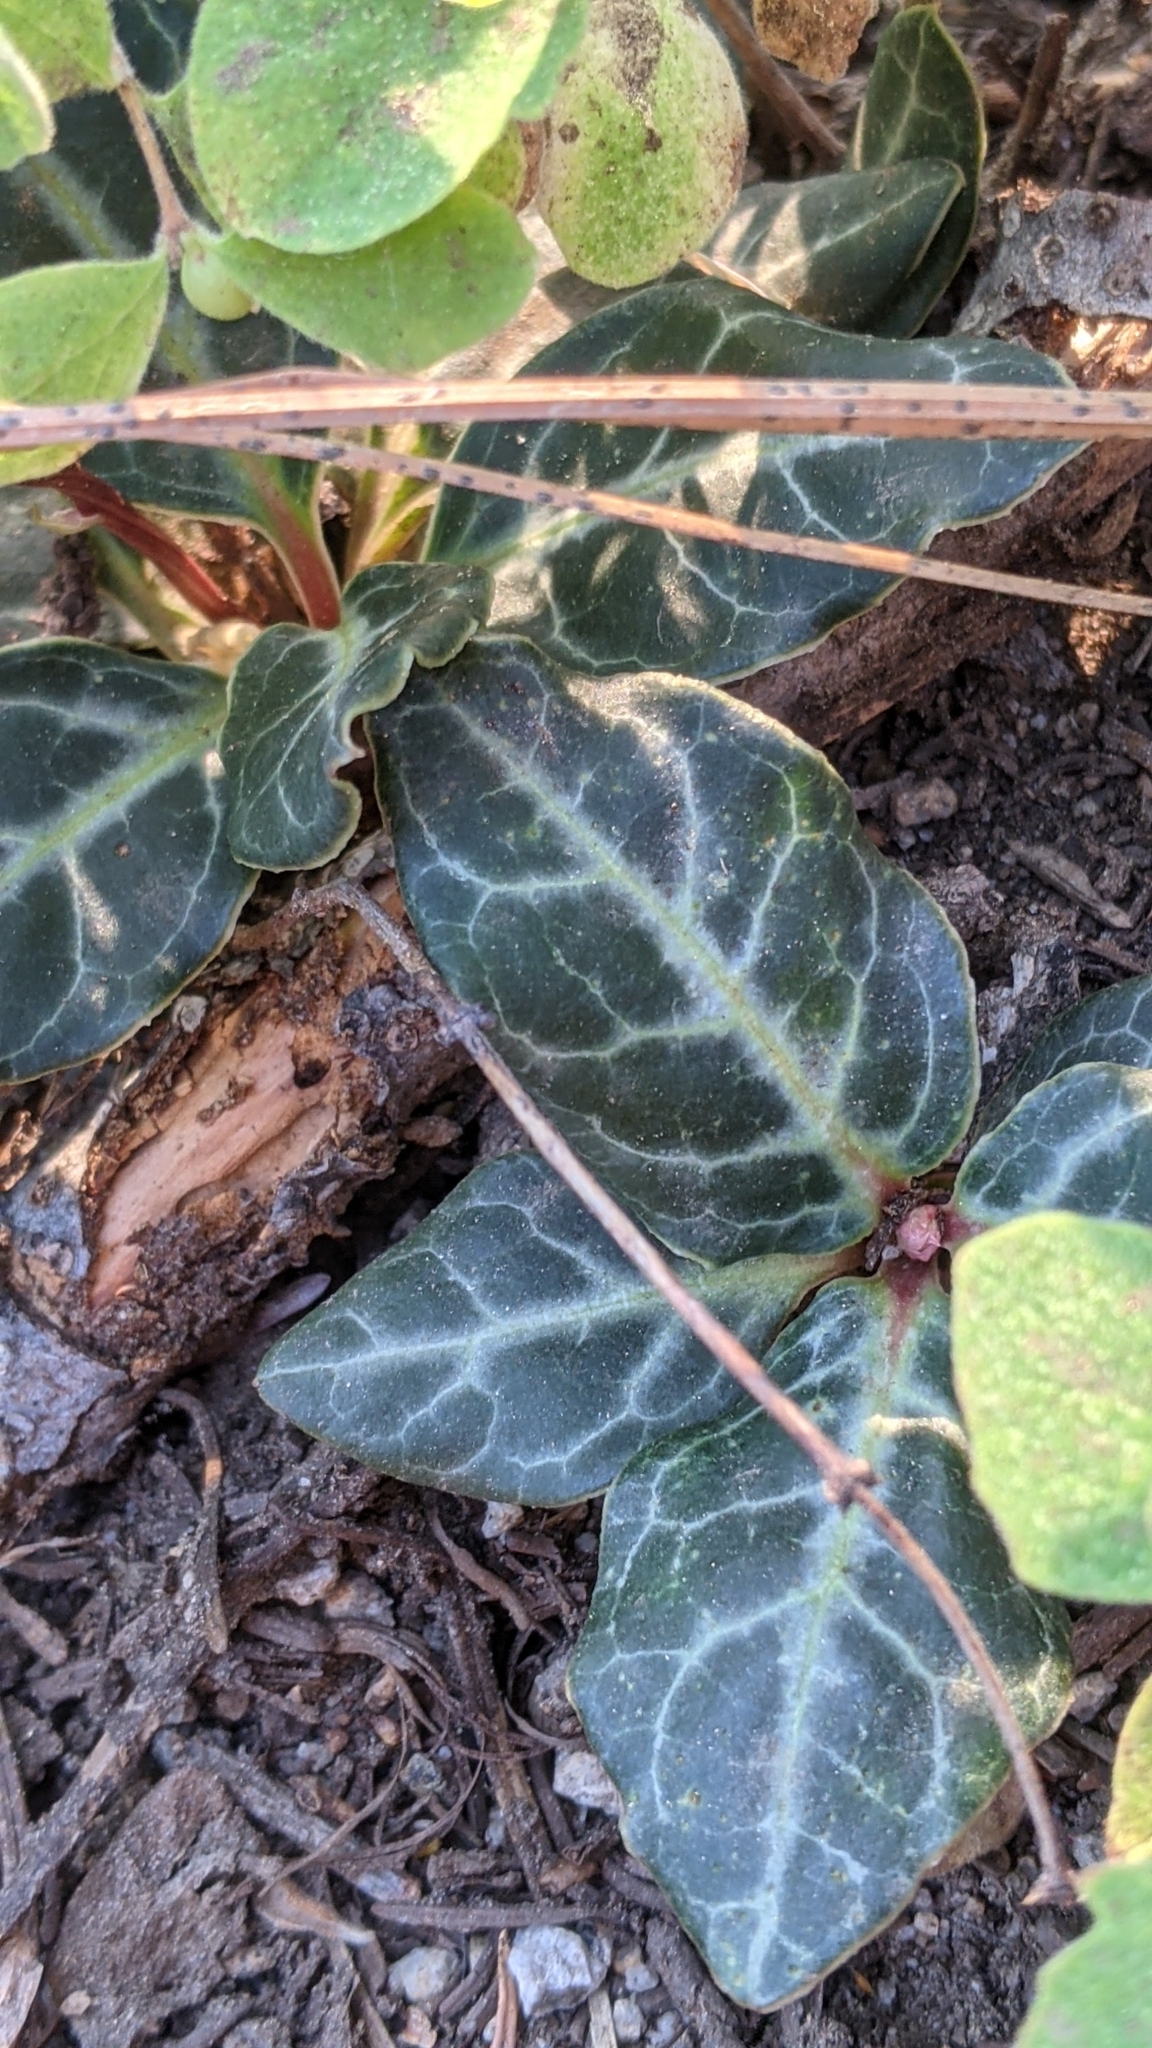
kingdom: Plantae
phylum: Tracheophyta
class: Magnoliopsida
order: Ericales
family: Ericaceae
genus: Pyrola
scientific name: Pyrola picta
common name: White-vein wintergreen
